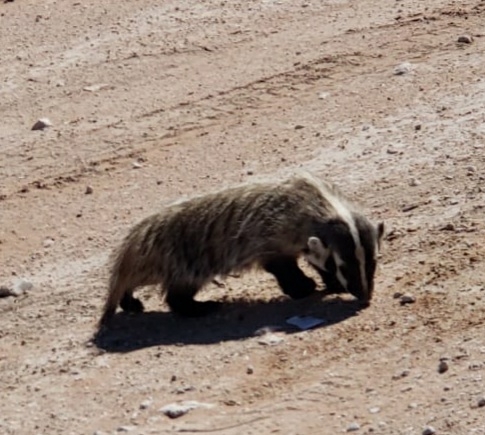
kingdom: Animalia
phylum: Chordata
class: Mammalia
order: Carnivora
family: Mustelidae
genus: Taxidea
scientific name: Taxidea taxus
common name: American badger
